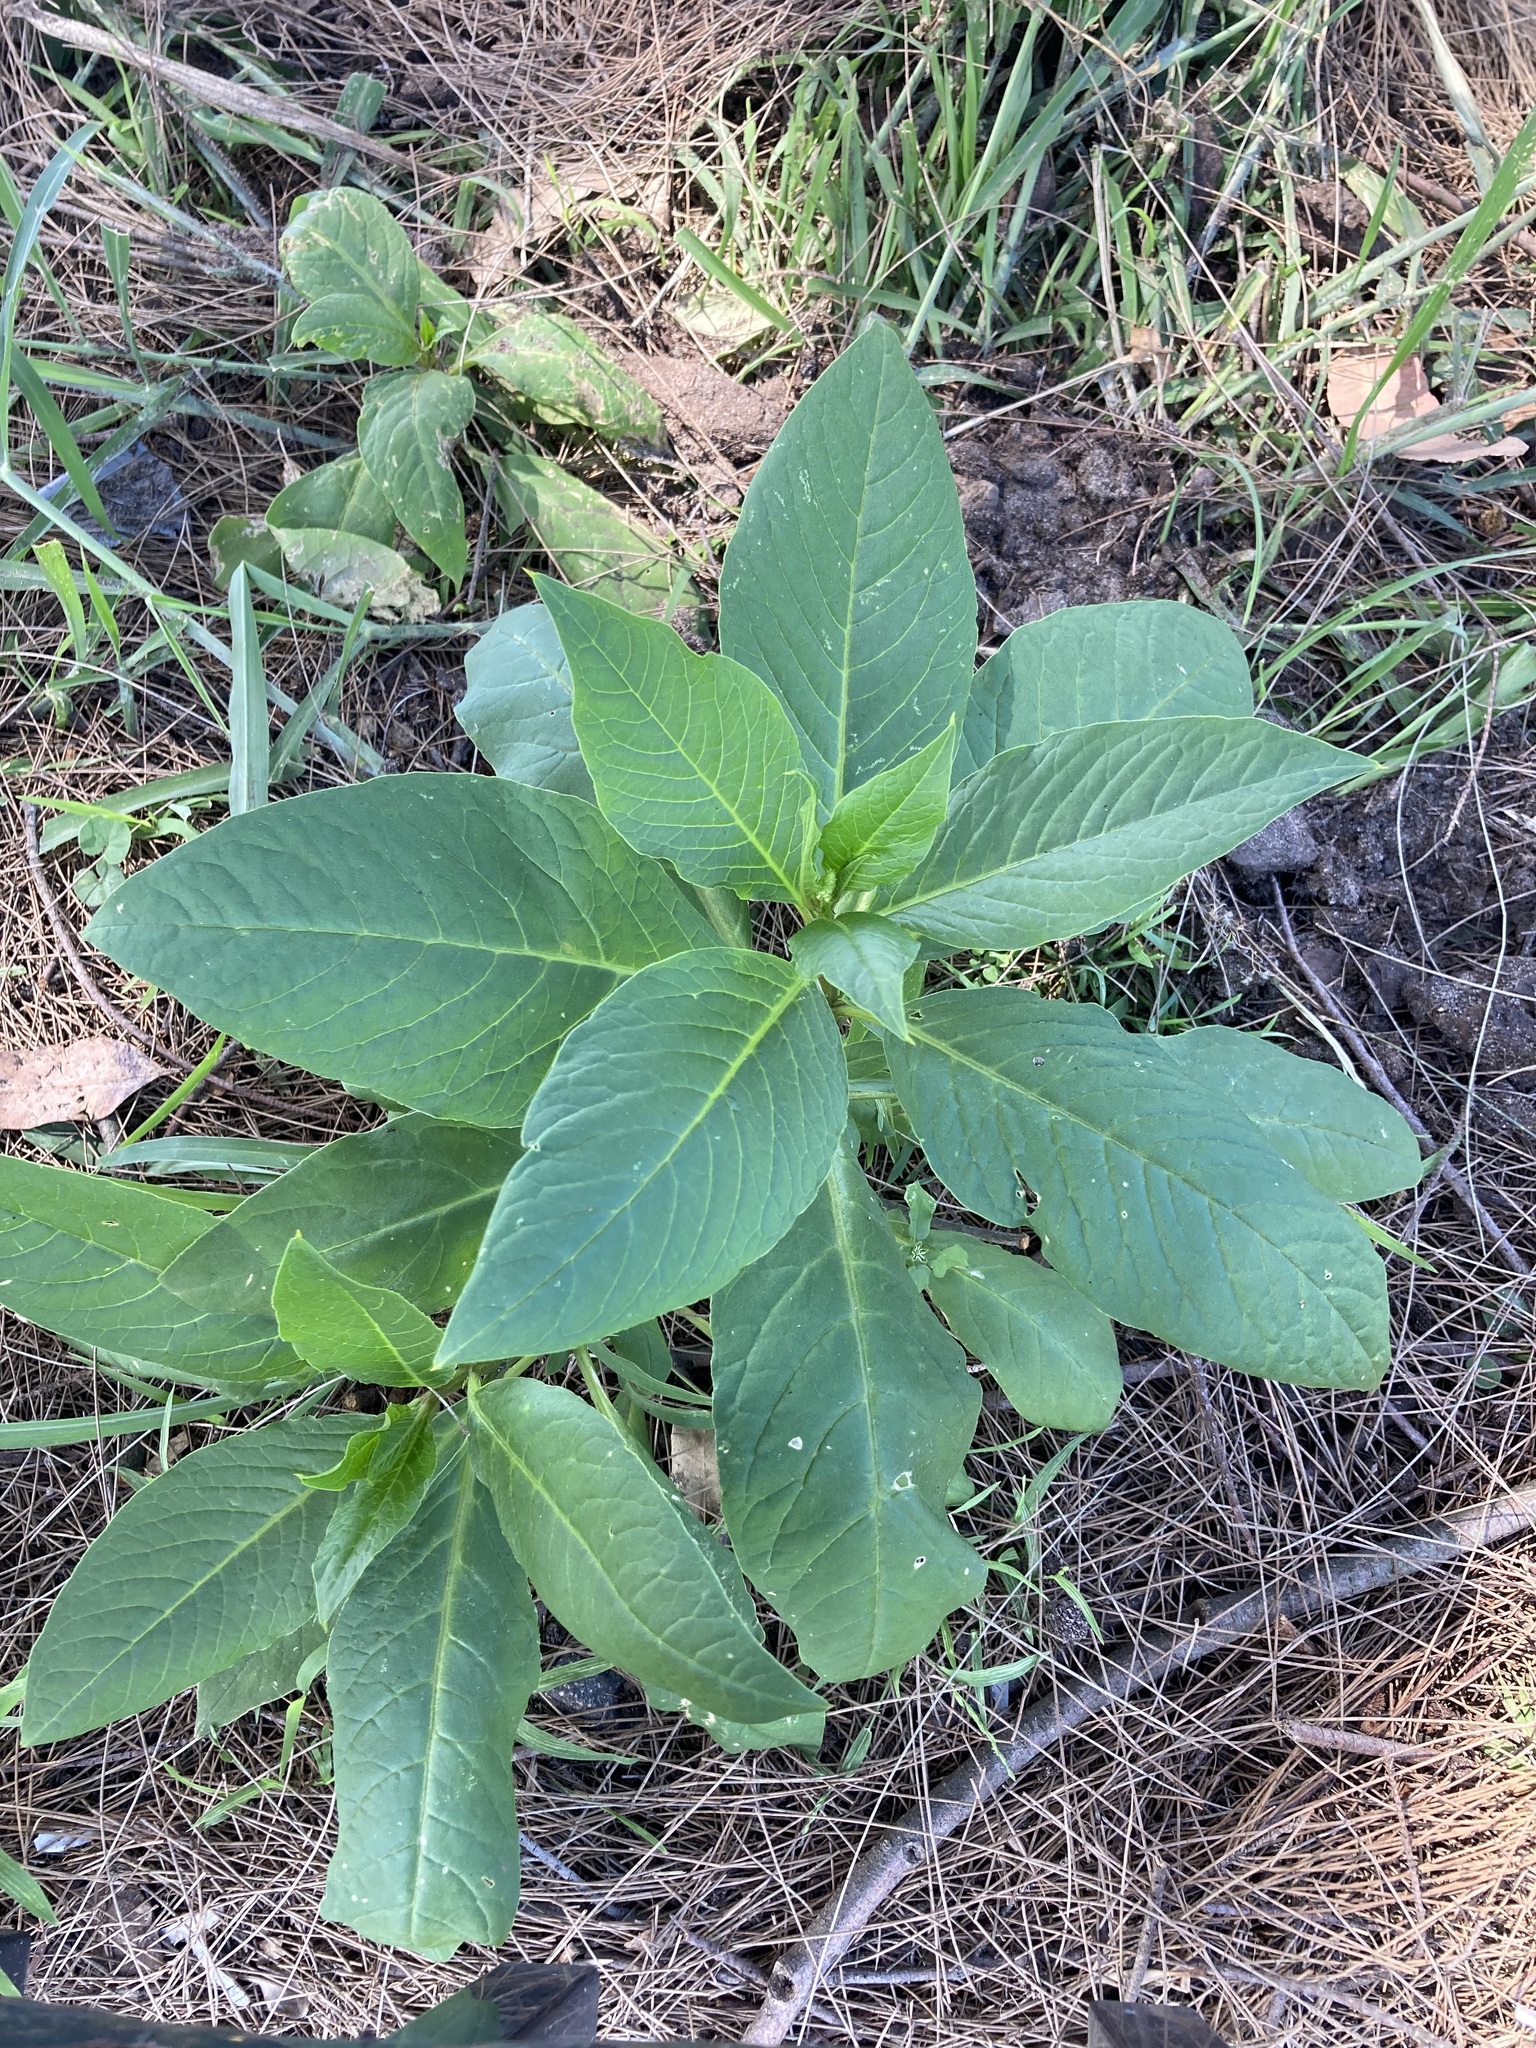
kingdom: Plantae
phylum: Tracheophyta
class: Magnoliopsida
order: Caryophyllales
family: Phytolaccaceae
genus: Phytolacca
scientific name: Phytolacca icosandra
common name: Button pokeweed
